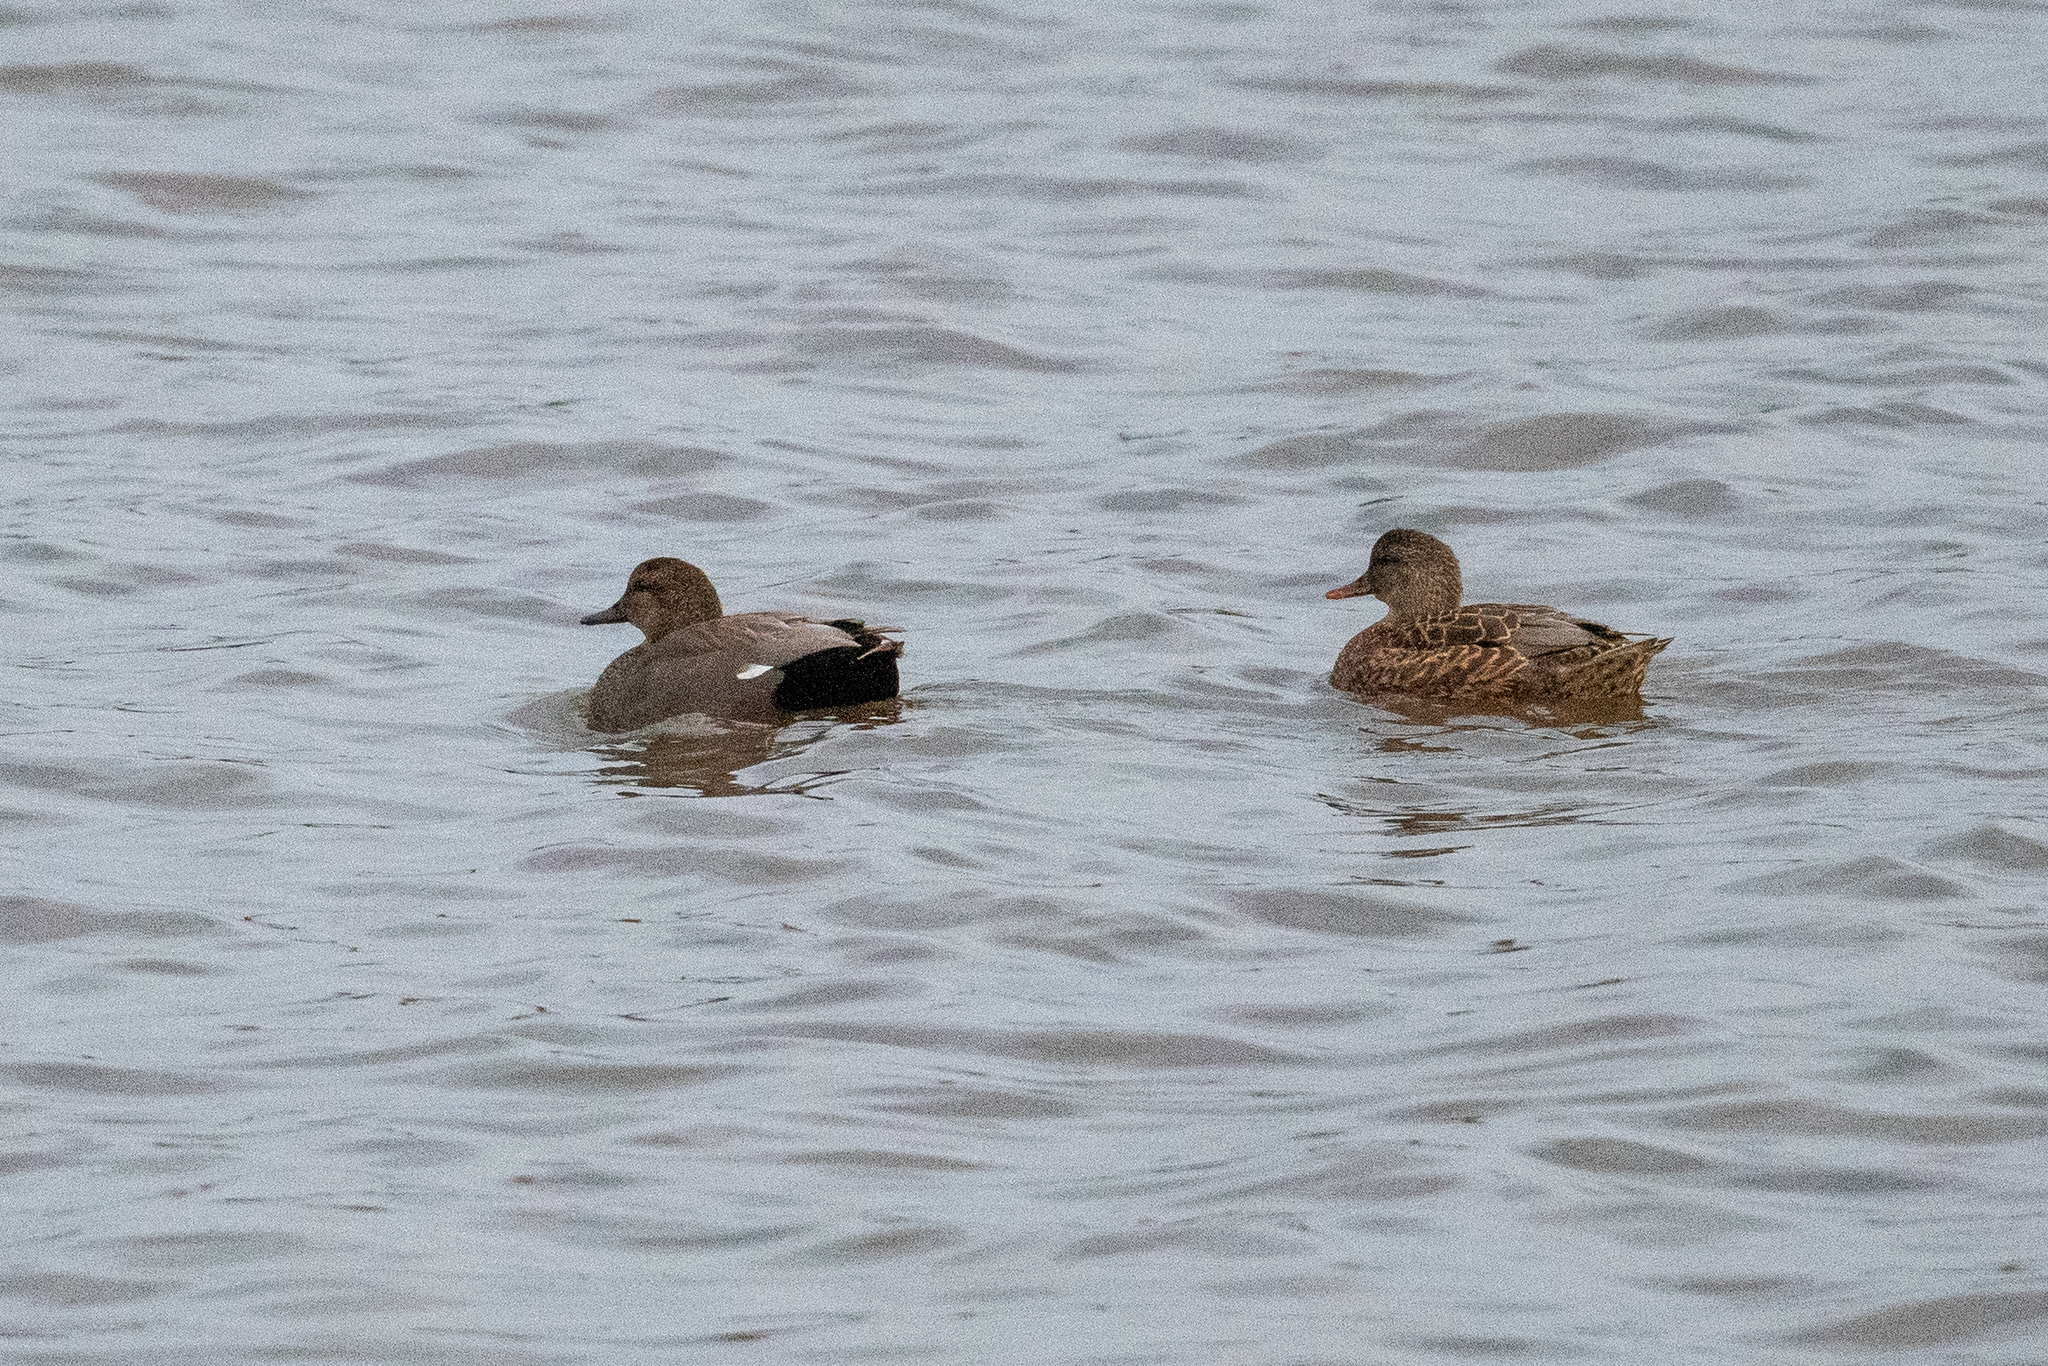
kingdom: Animalia
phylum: Chordata
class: Aves
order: Anseriformes
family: Anatidae
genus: Mareca
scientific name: Mareca strepera
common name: Gadwall
